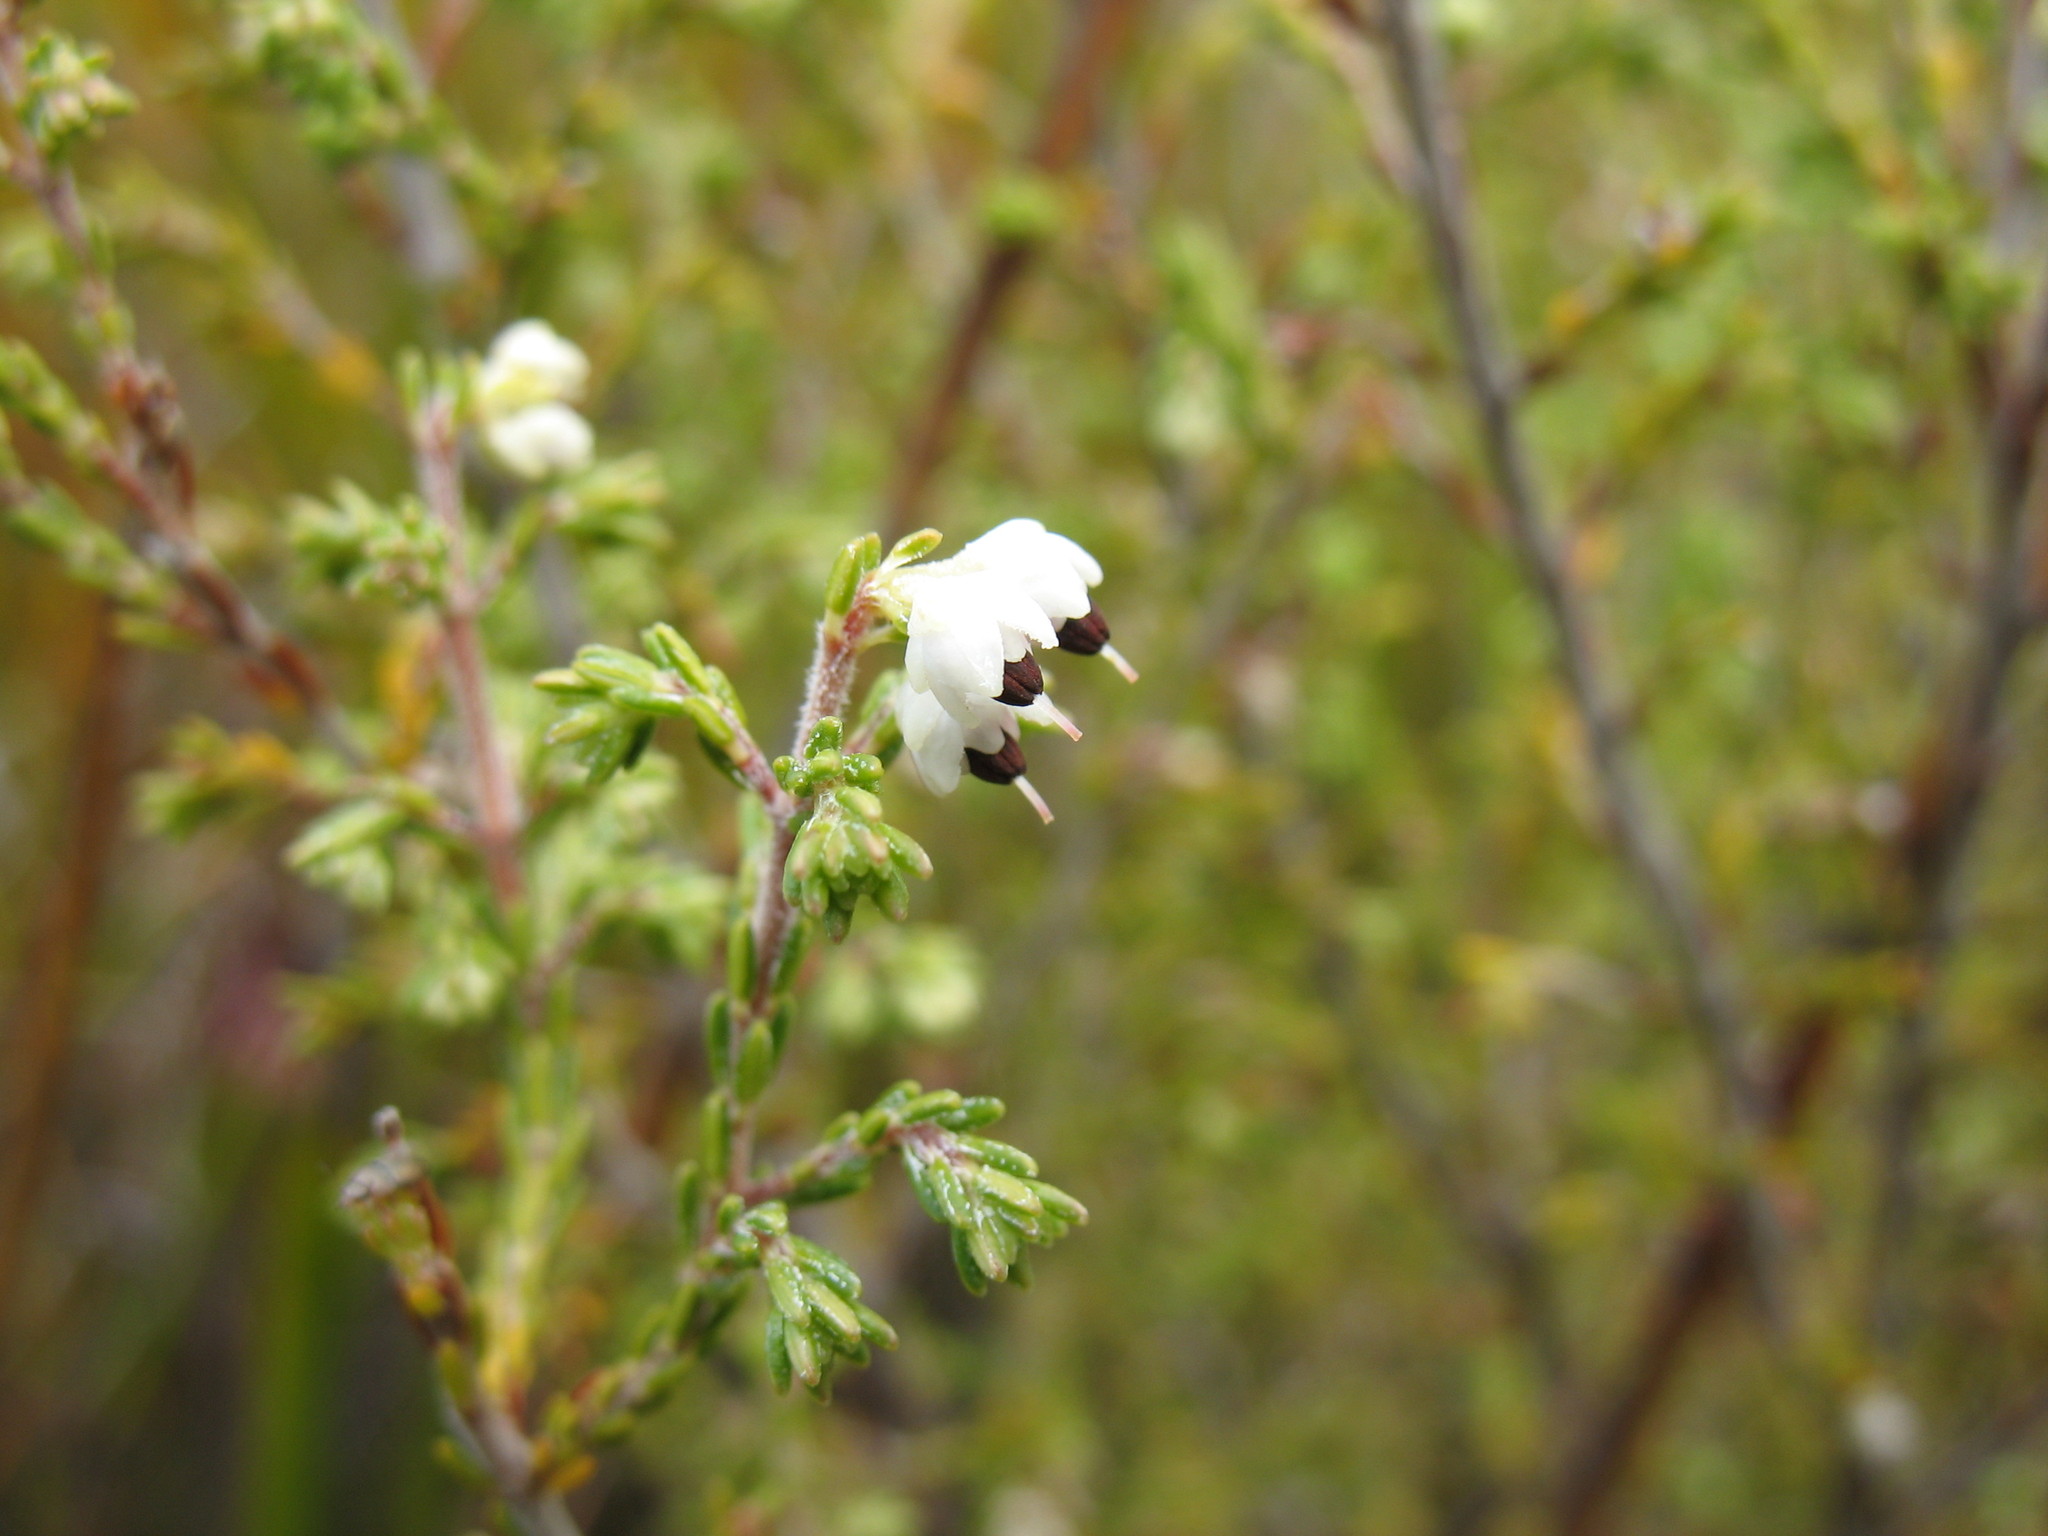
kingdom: Plantae
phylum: Tracheophyta
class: Magnoliopsida
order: Ericales
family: Ericaceae
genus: Erica
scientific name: Erica placentiflora
